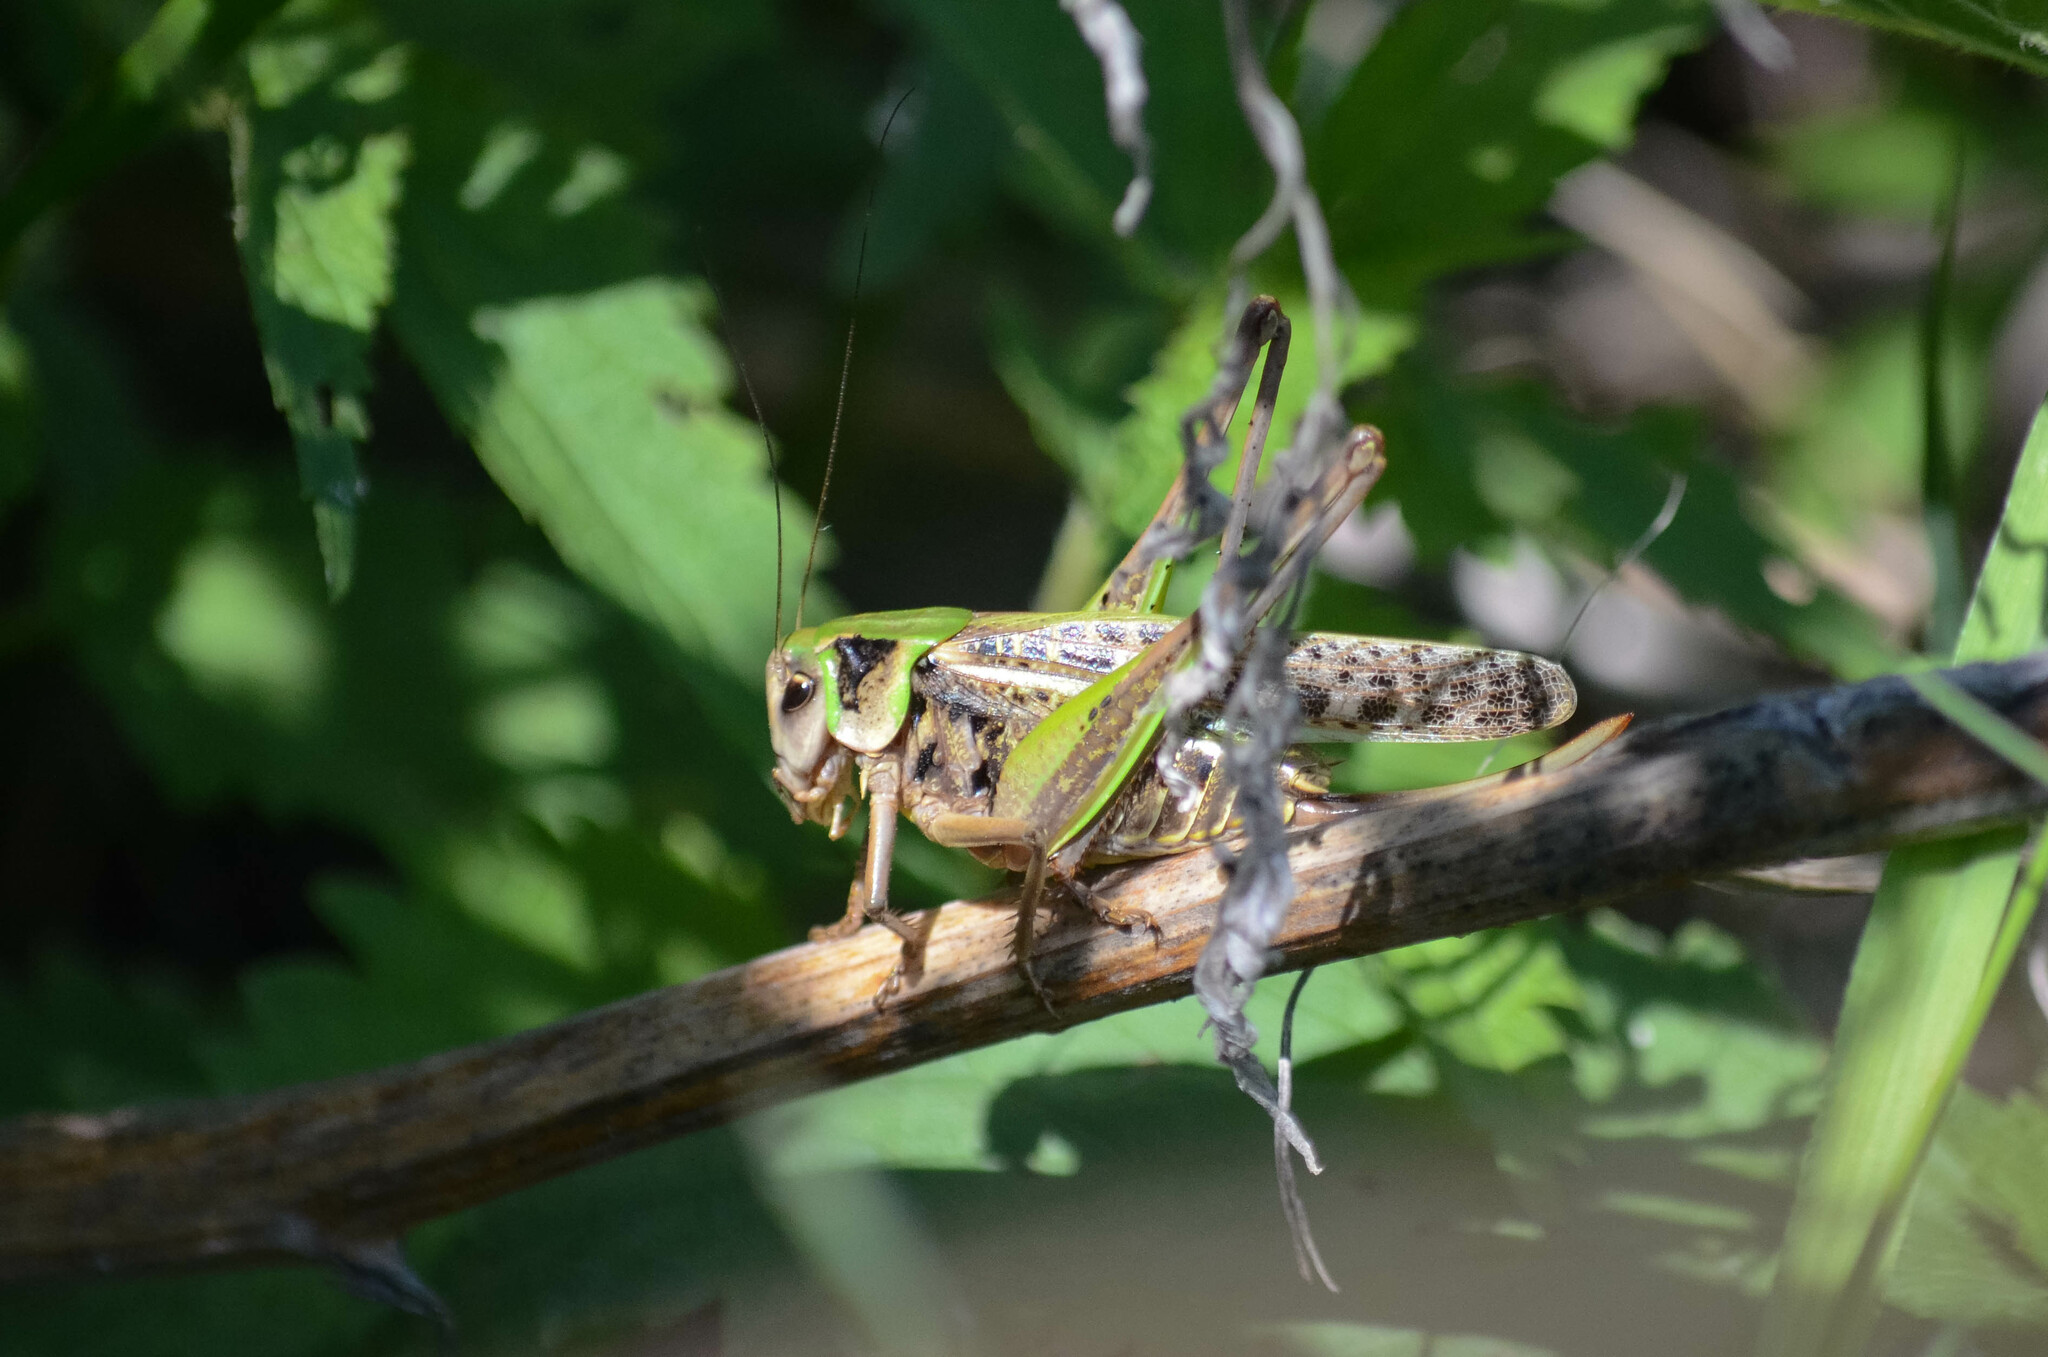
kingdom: Animalia
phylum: Arthropoda
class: Insecta
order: Orthoptera
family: Tettigoniidae
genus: Decticus
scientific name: Decticus verrucivorus
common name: Wart-biter
